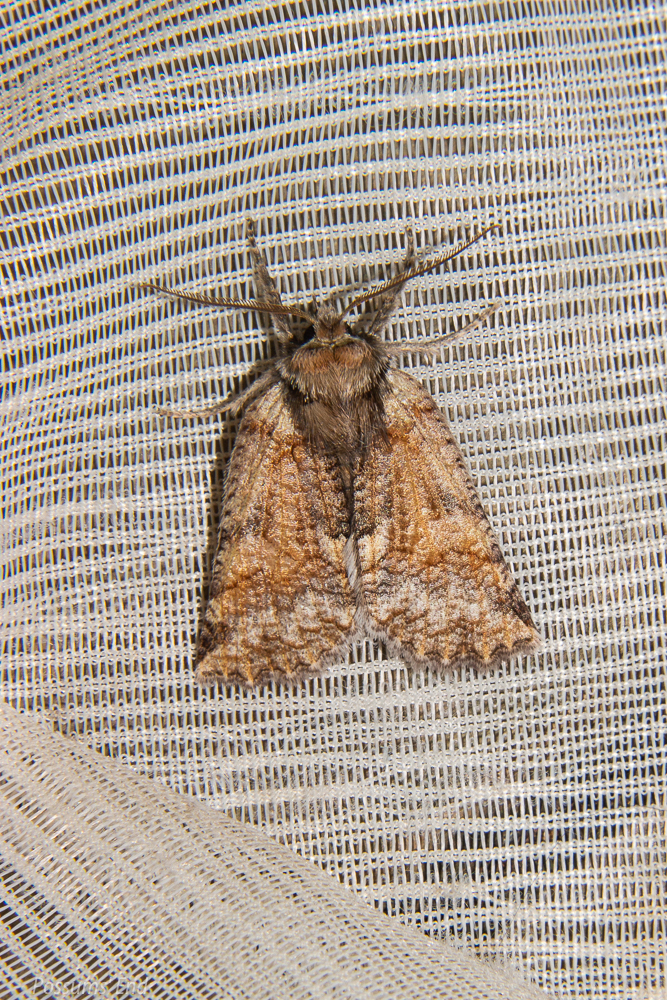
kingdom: Animalia
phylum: Arthropoda
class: Insecta
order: Lepidoptera
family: Geometridae
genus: Declana
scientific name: Declana floccosa
